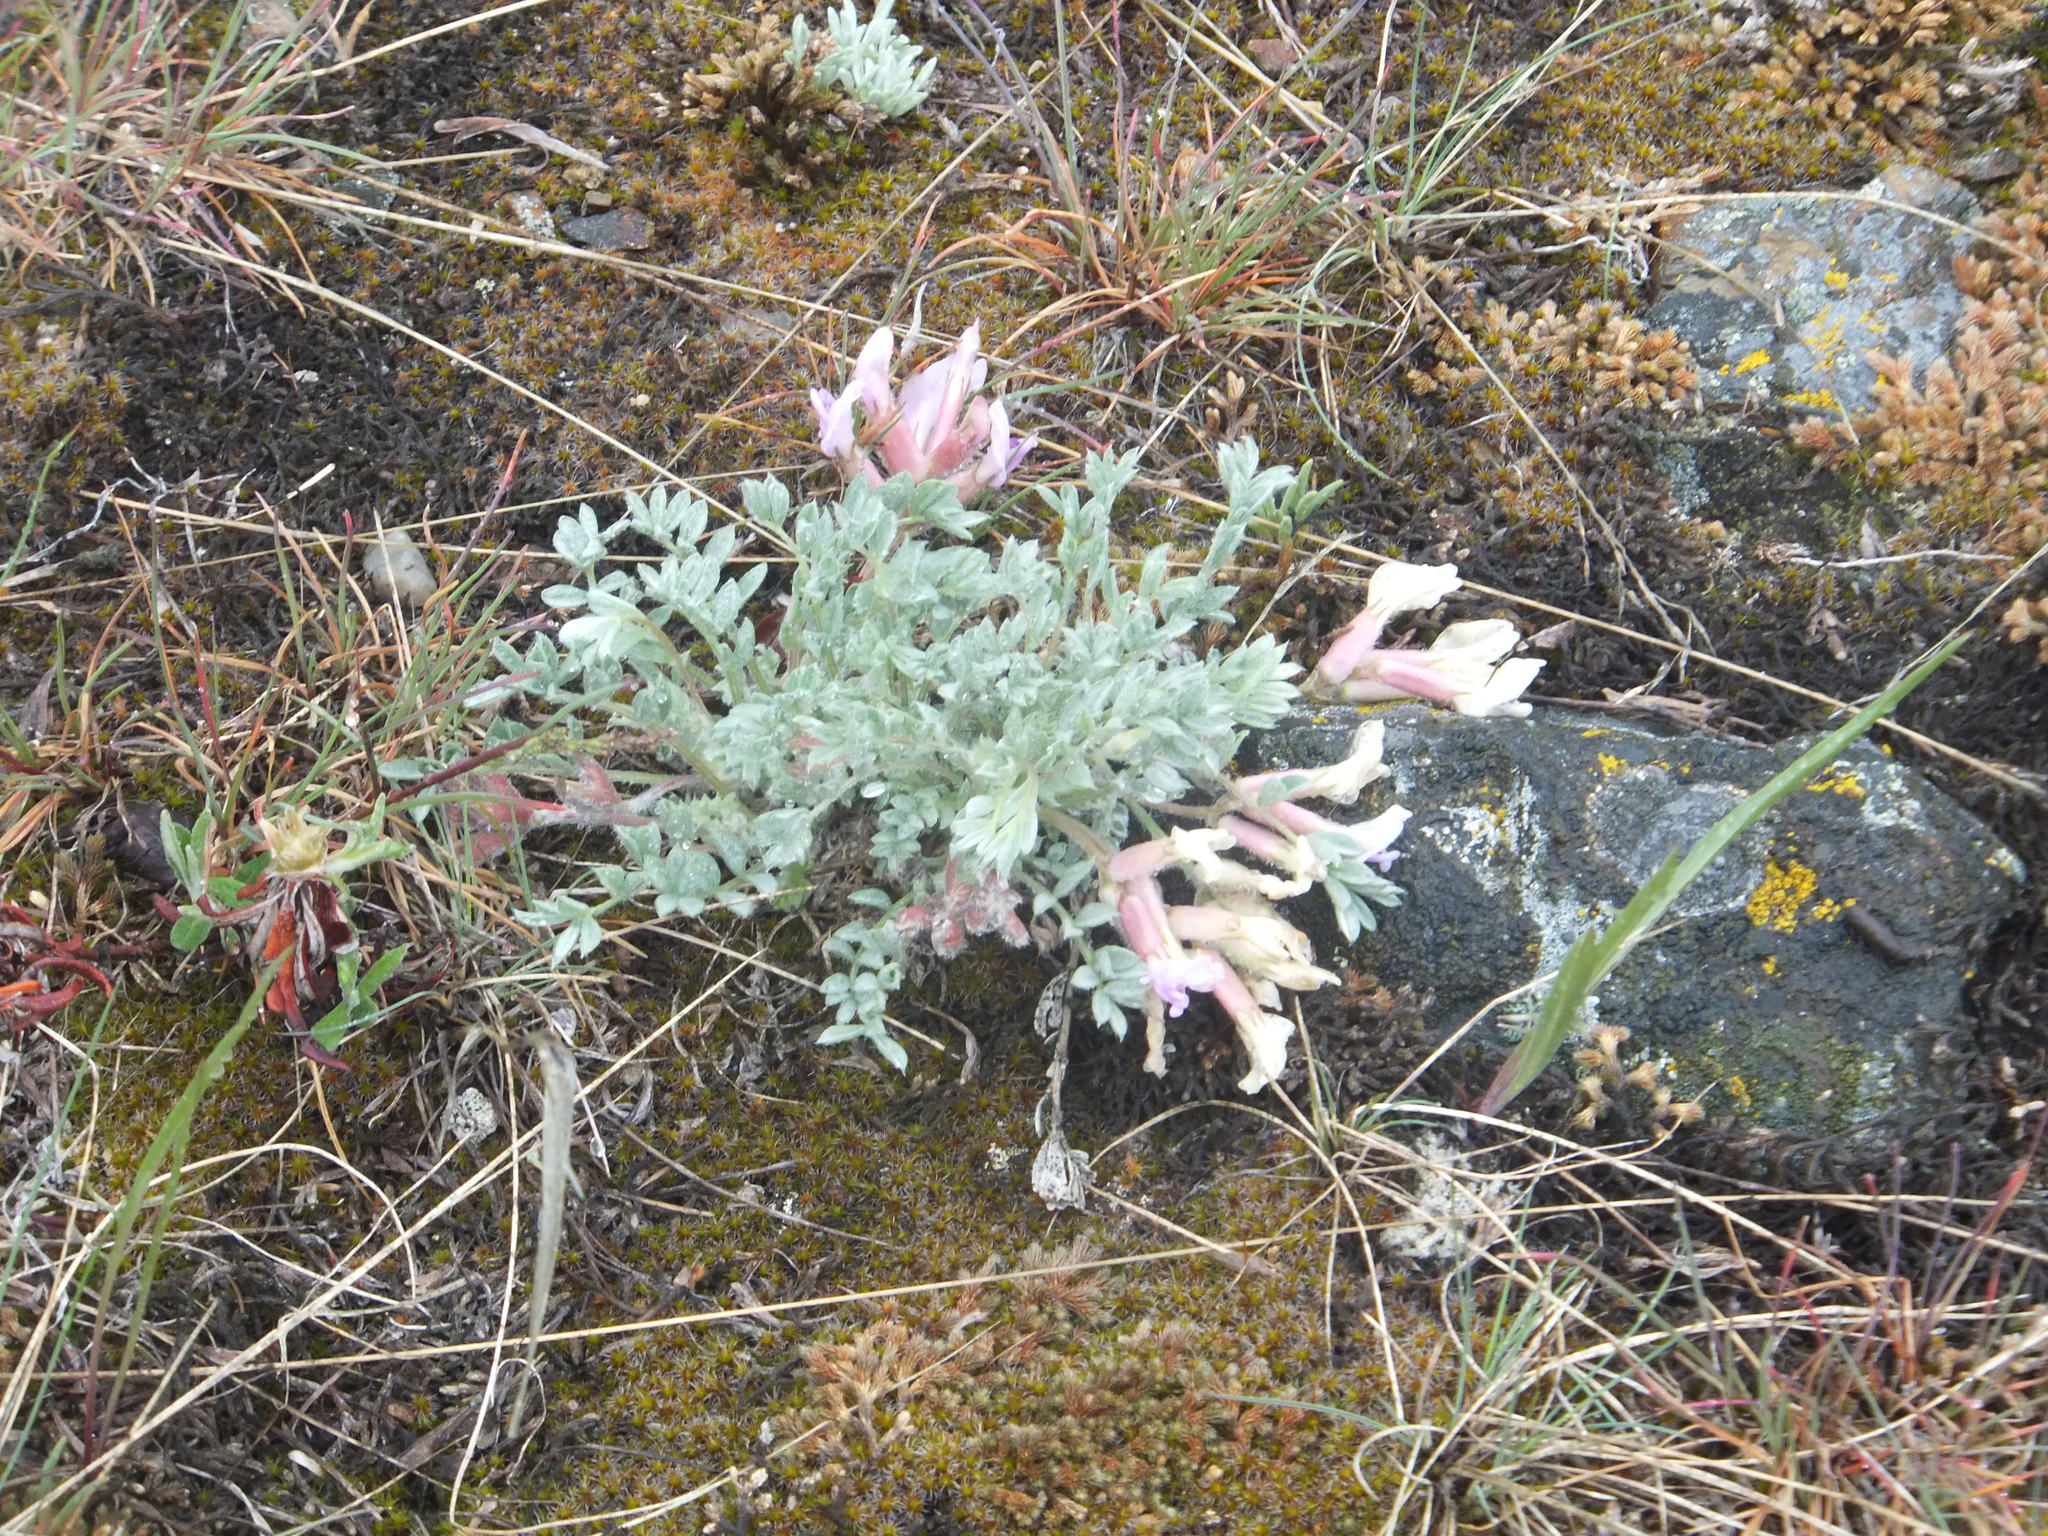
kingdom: Plantae
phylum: Tracheophyta
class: Magnoliopsida
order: Fabales
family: Fabaceae
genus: Astragalus
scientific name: Astragalus purshii
